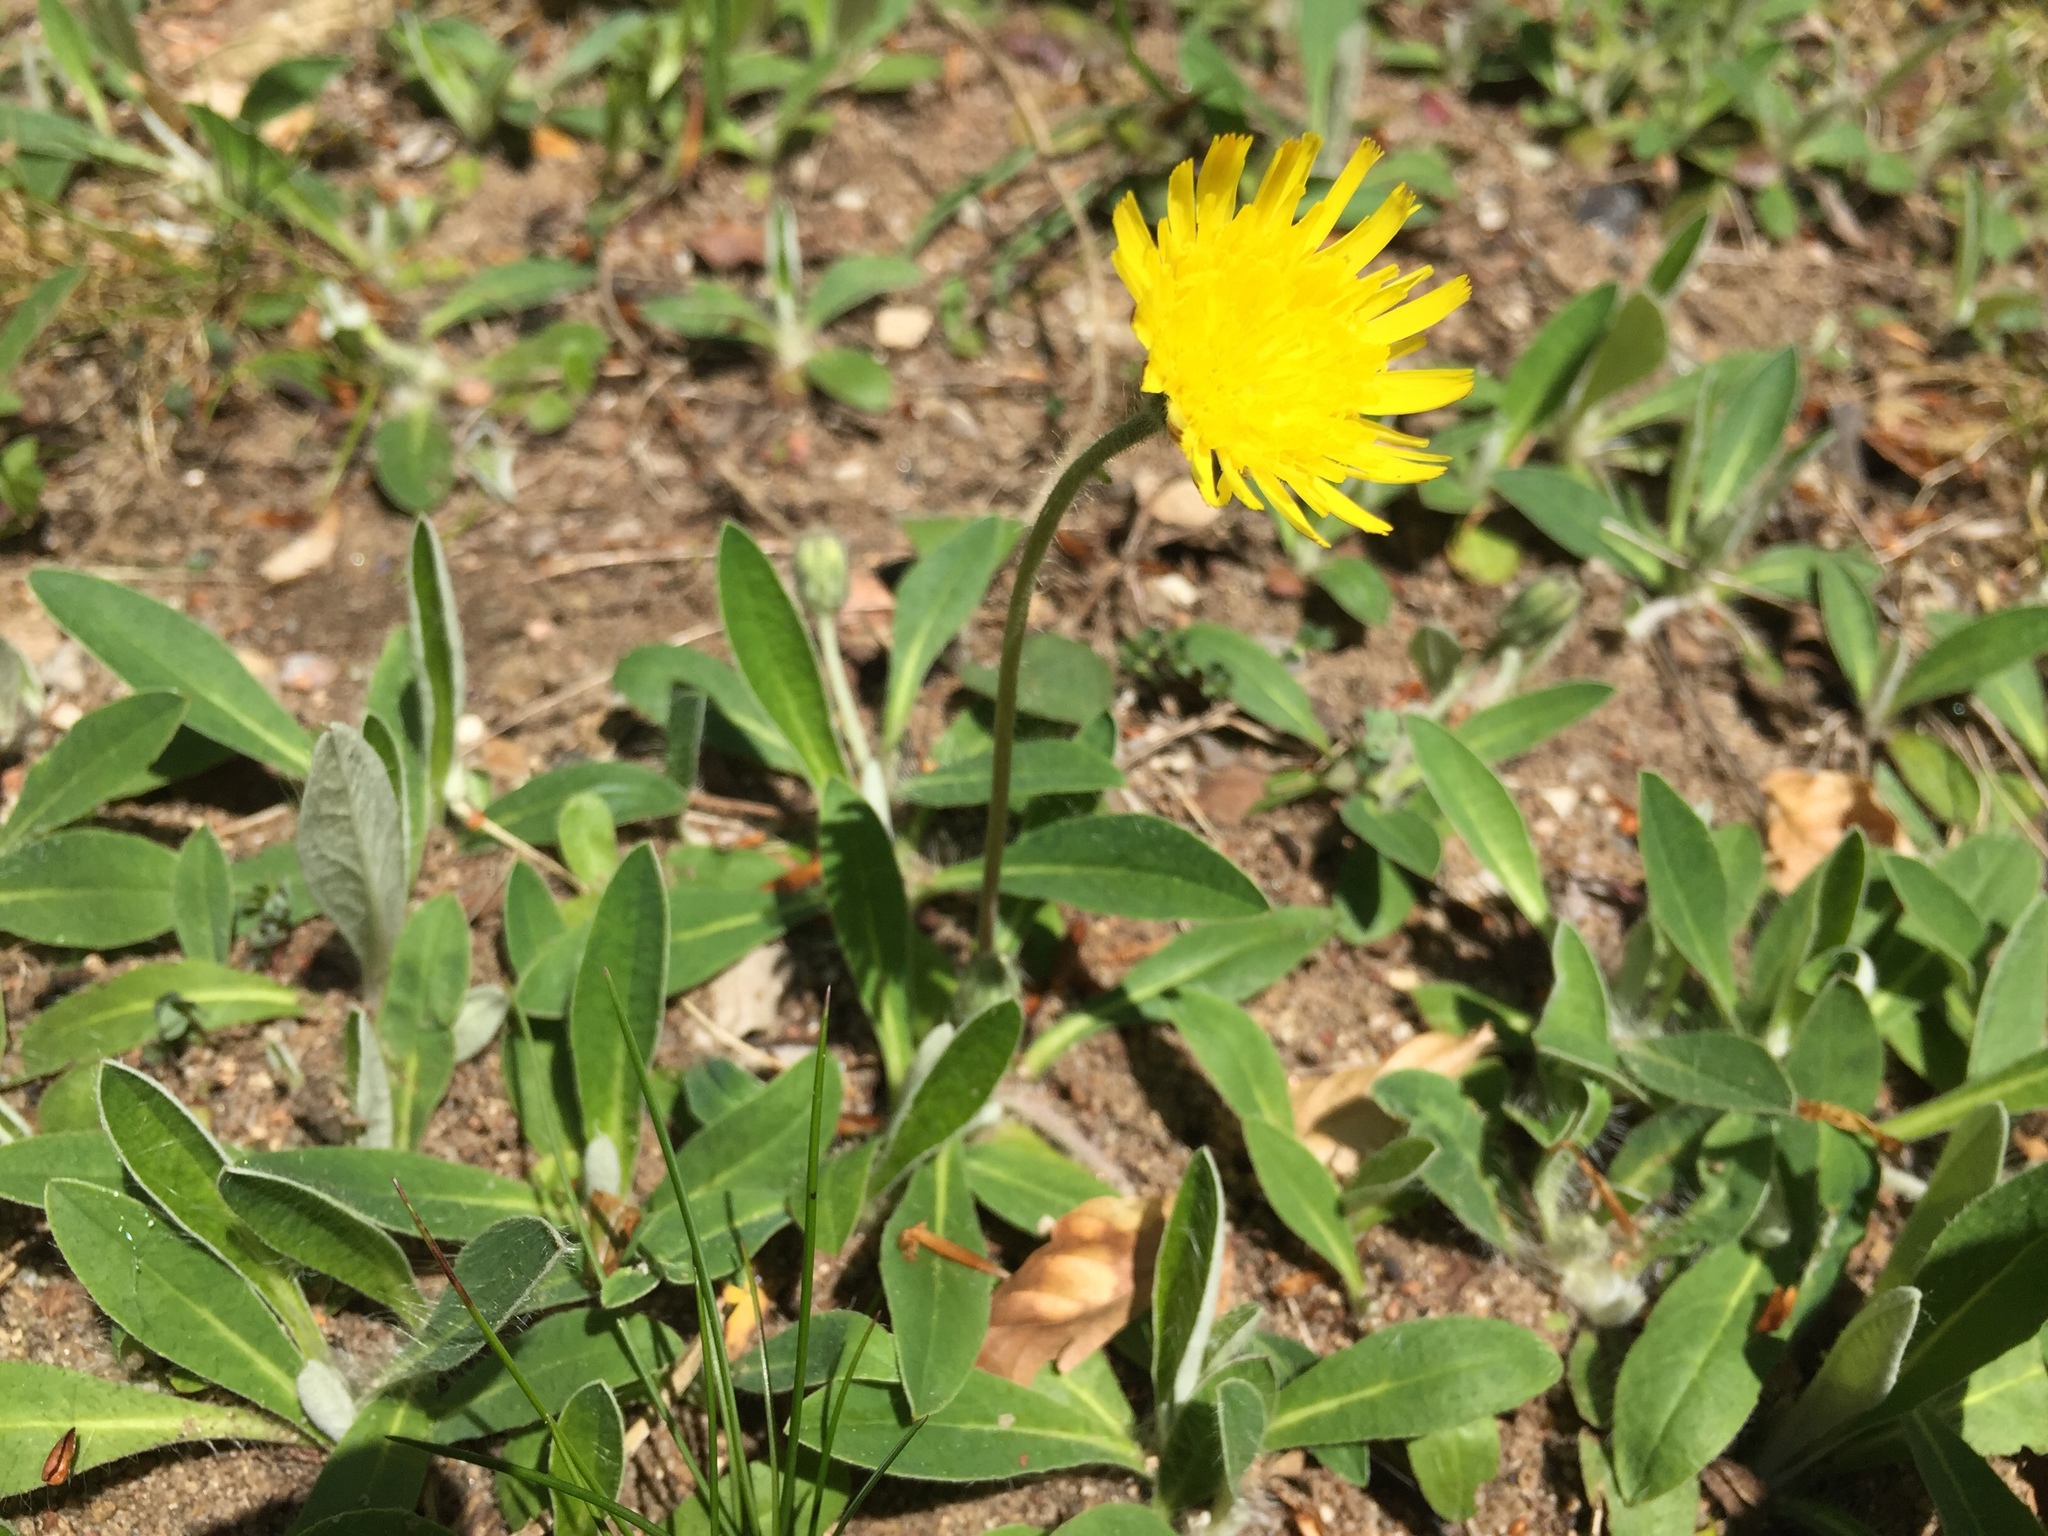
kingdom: Plantae
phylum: Tracheophyta
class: Magnoliopsida
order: Asterales
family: Asteraceae
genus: Pilosella
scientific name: Pilosella officinarum
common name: Mouse-ear hawkweed
